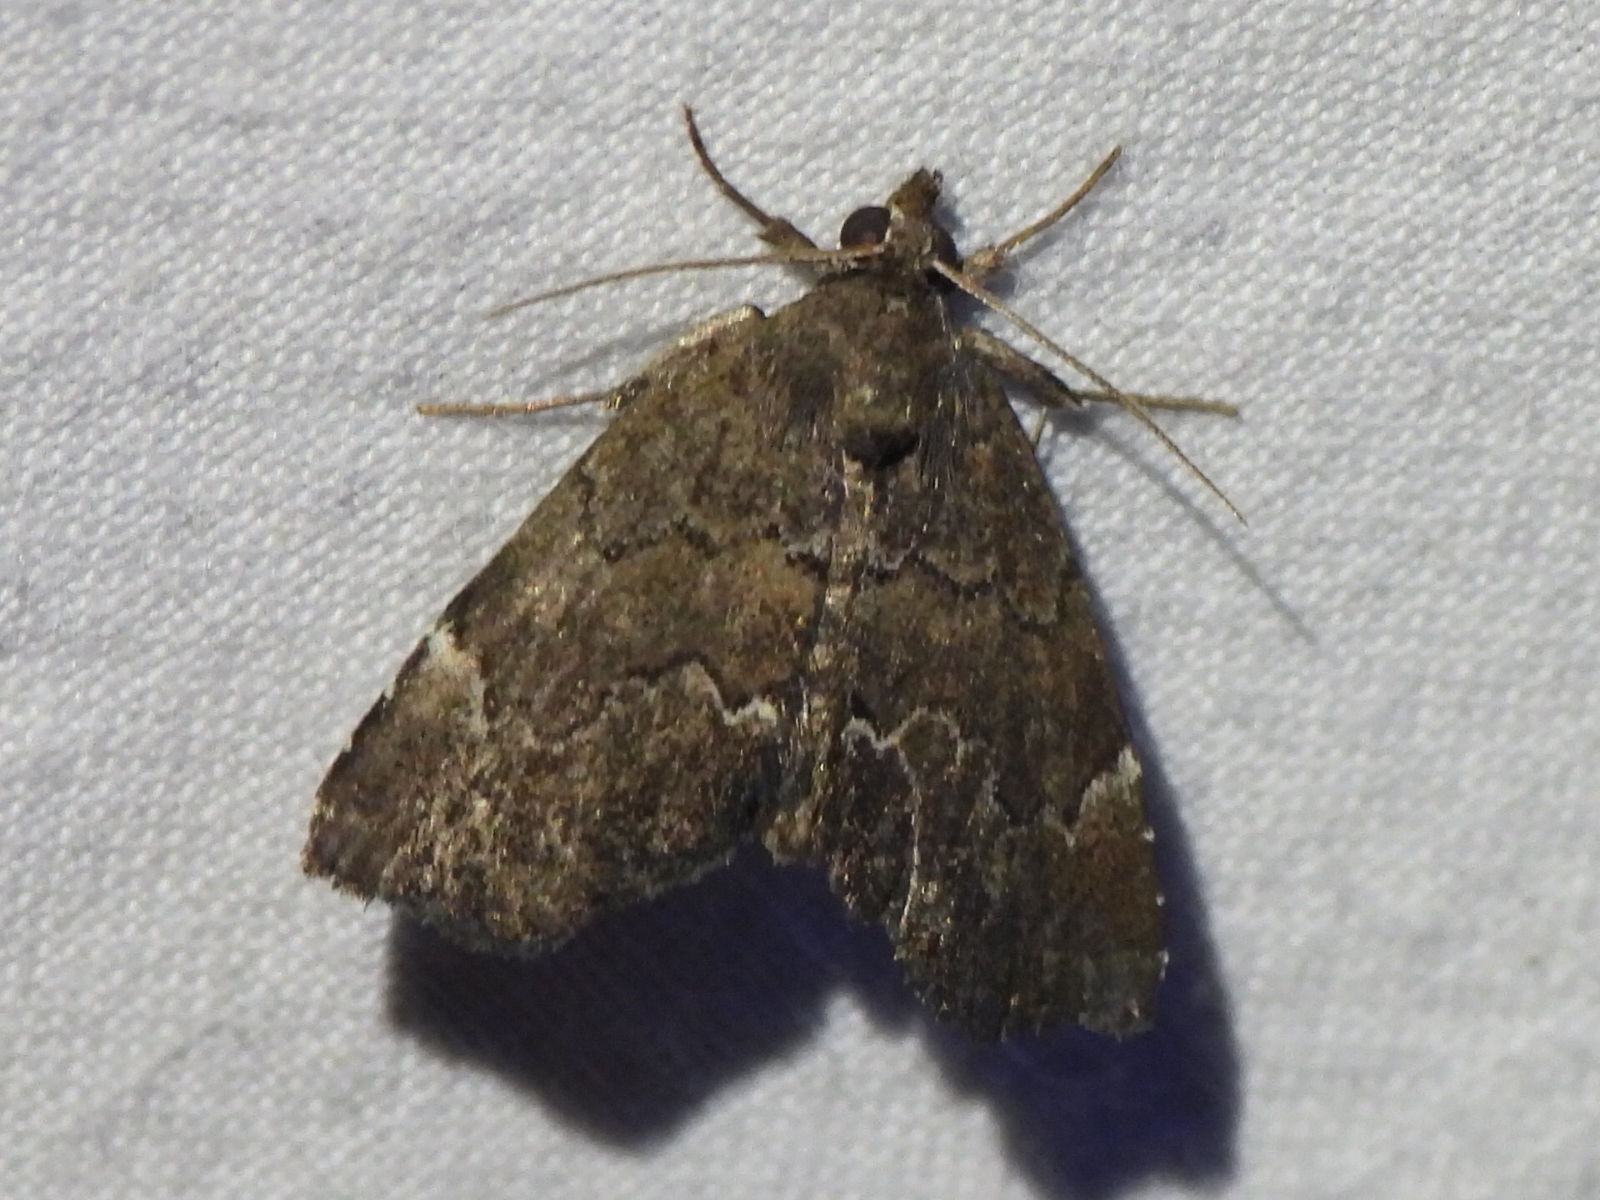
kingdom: Animalia
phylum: Arthropoda
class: Insecta
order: Lepidoptera
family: Erebidae
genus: Cutina
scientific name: Cutina aluticolor
